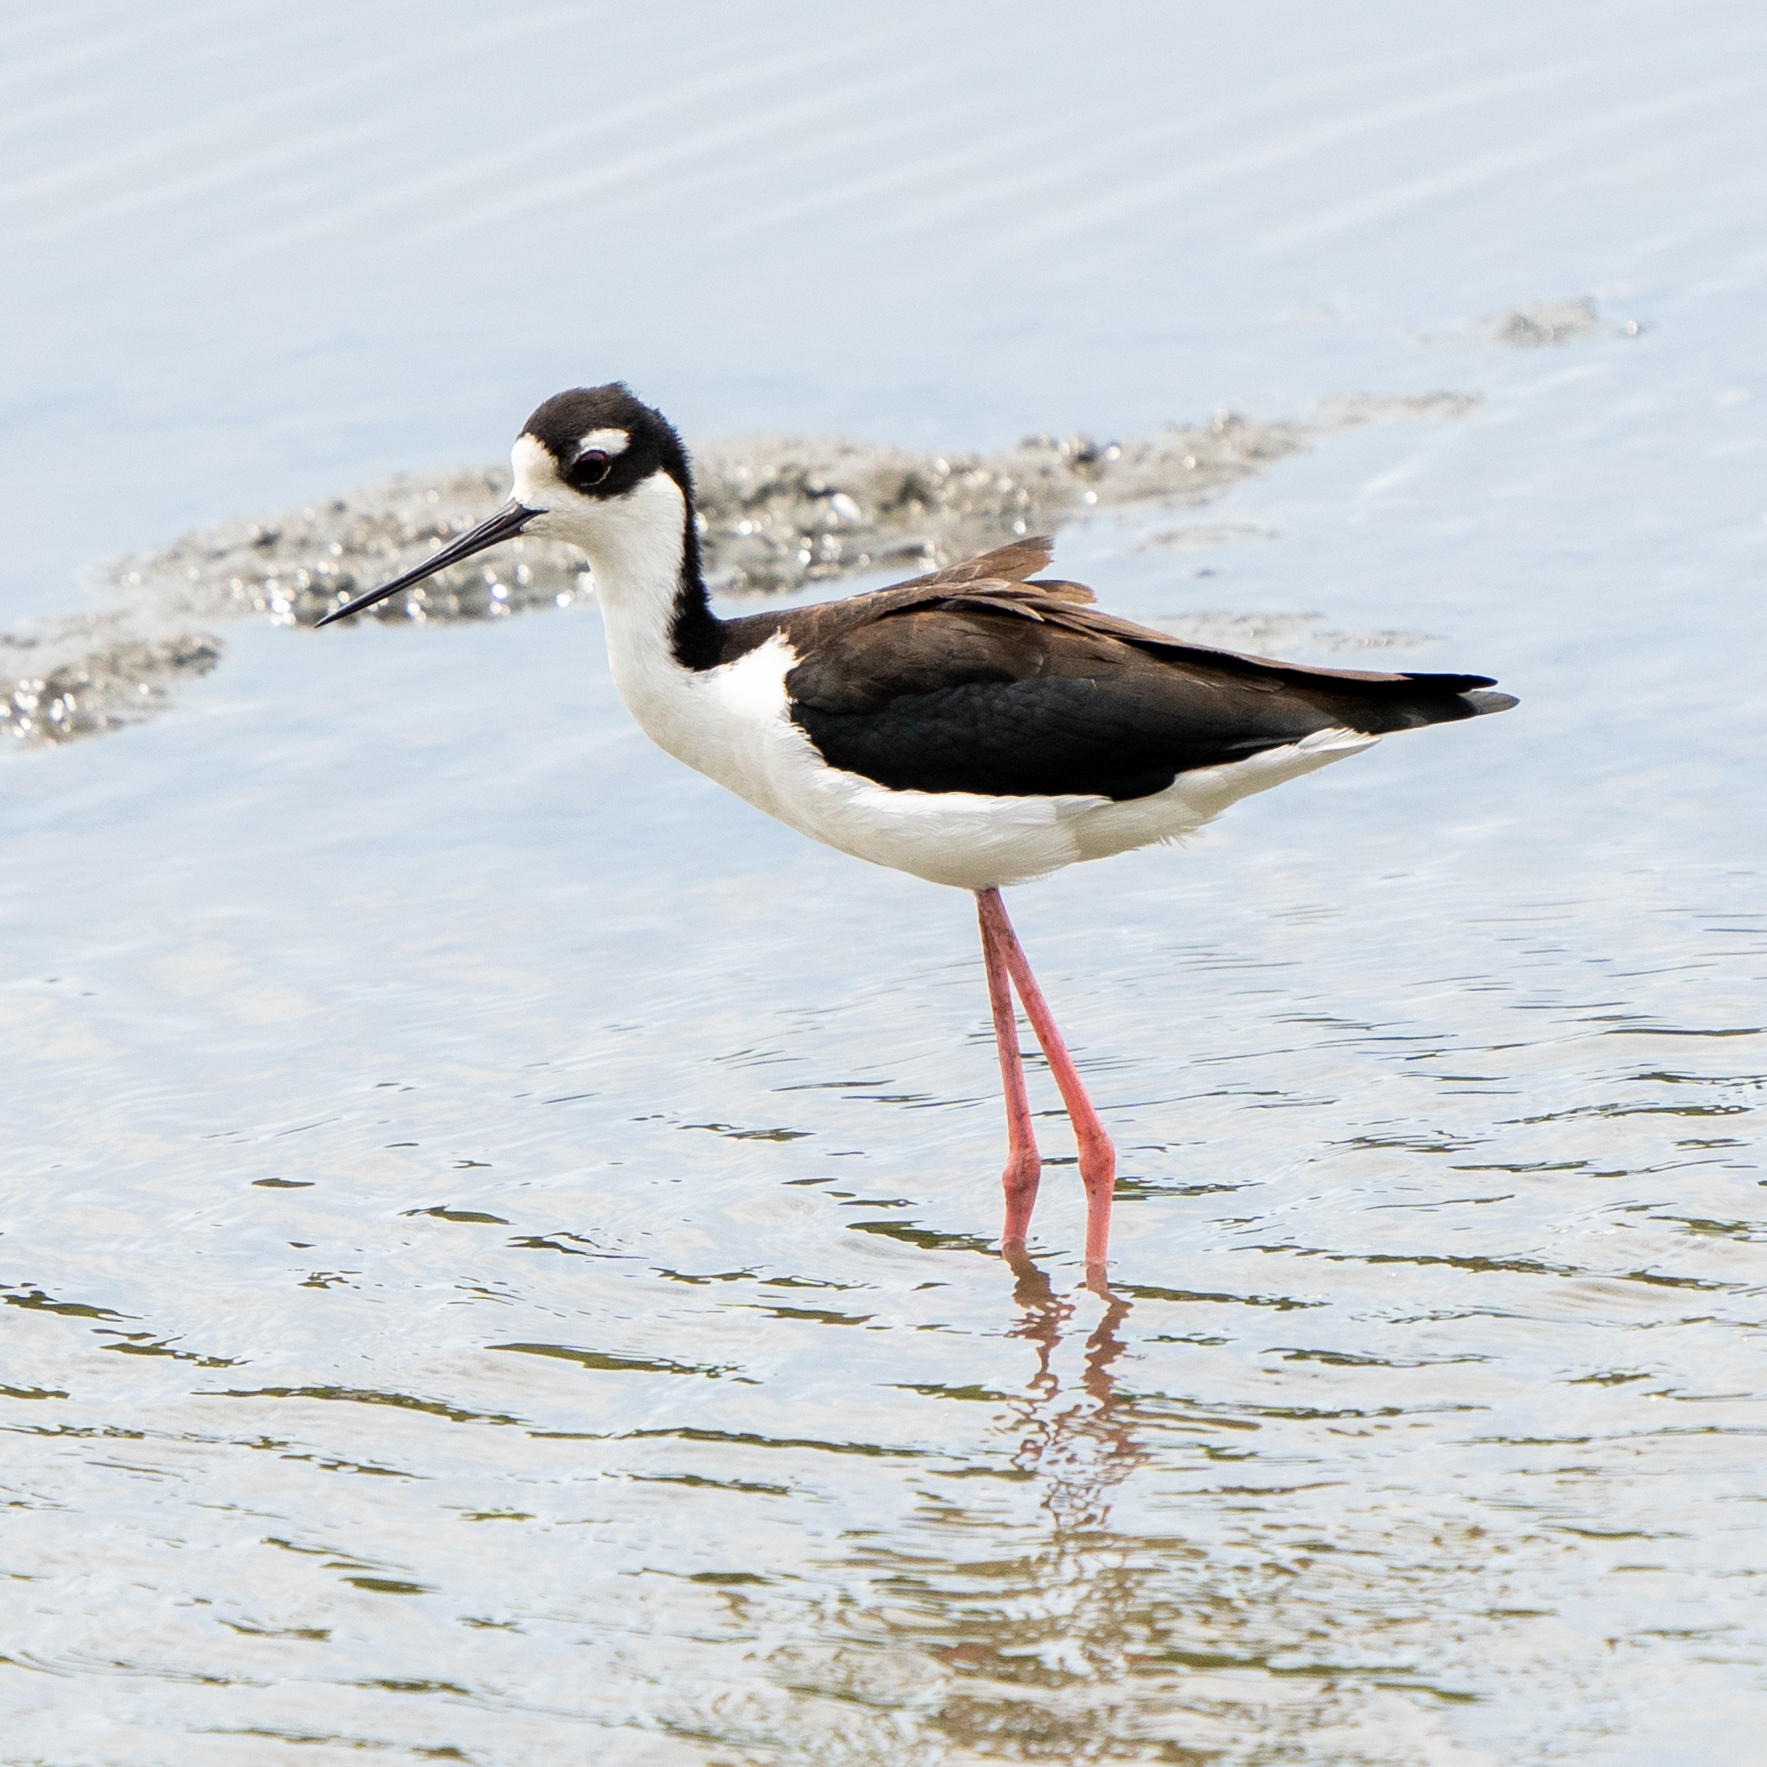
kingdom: Animalia
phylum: Chordata
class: Aves
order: Charadriiformes
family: Recurvirostridae
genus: Himantopus
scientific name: Himantopus mexicanus
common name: Black-necked stilt
